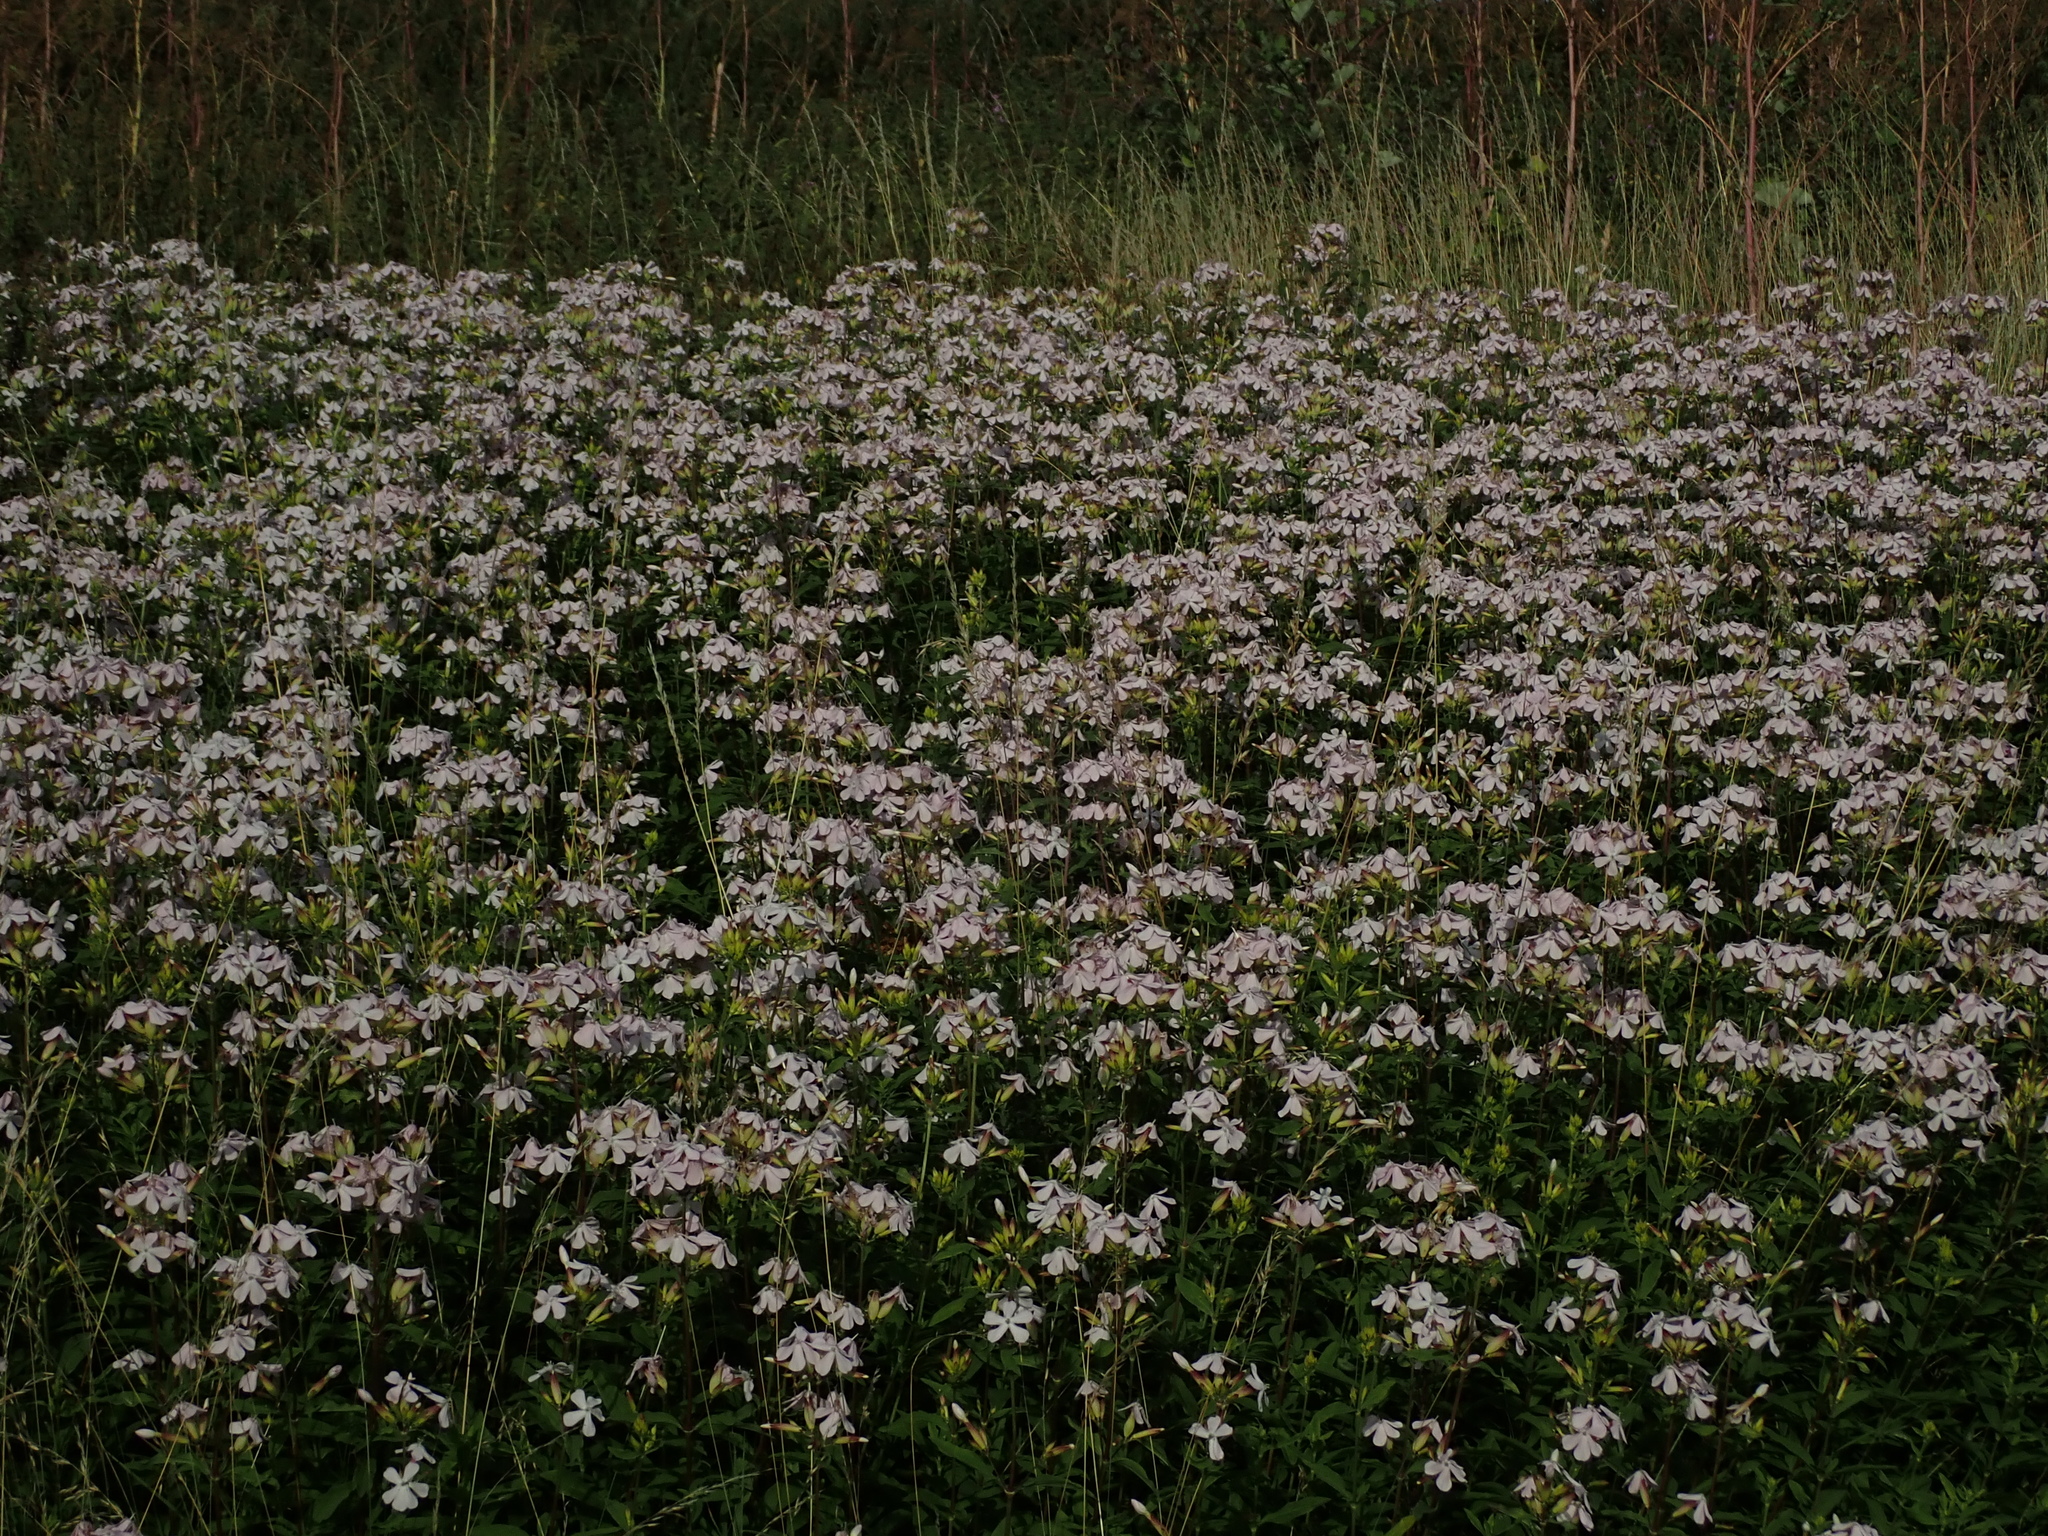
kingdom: Plantae
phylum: Tracheophyta
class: Magnoliopsida
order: Caryophyllales
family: Caryophyllaceae
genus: Saponaria
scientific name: Saponaria officinalis
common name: Soapwort
